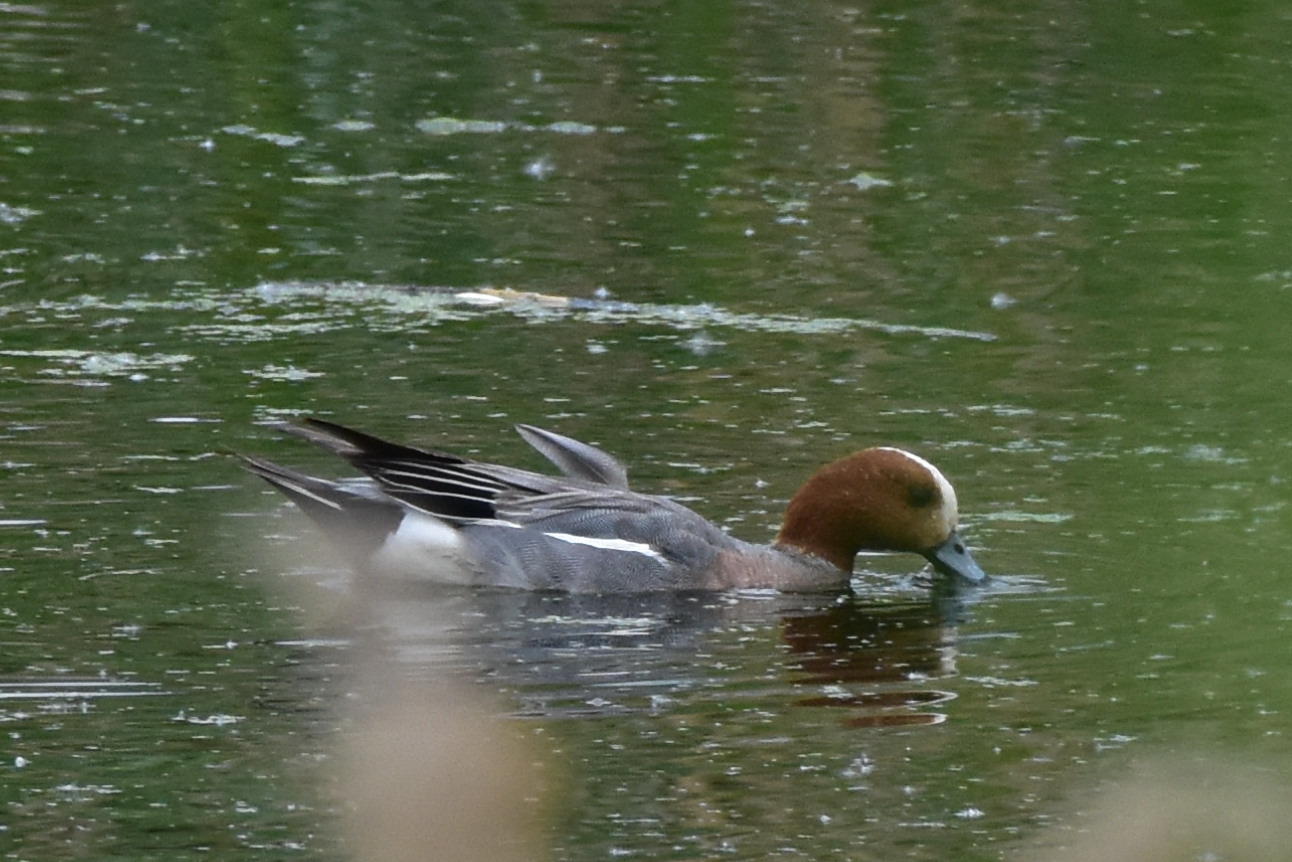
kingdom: Animalia
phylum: Chordata
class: Aves
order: Anseriformes
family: Anatidae
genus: Mareca
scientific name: Mareca penelope
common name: Eurasian wigeon
